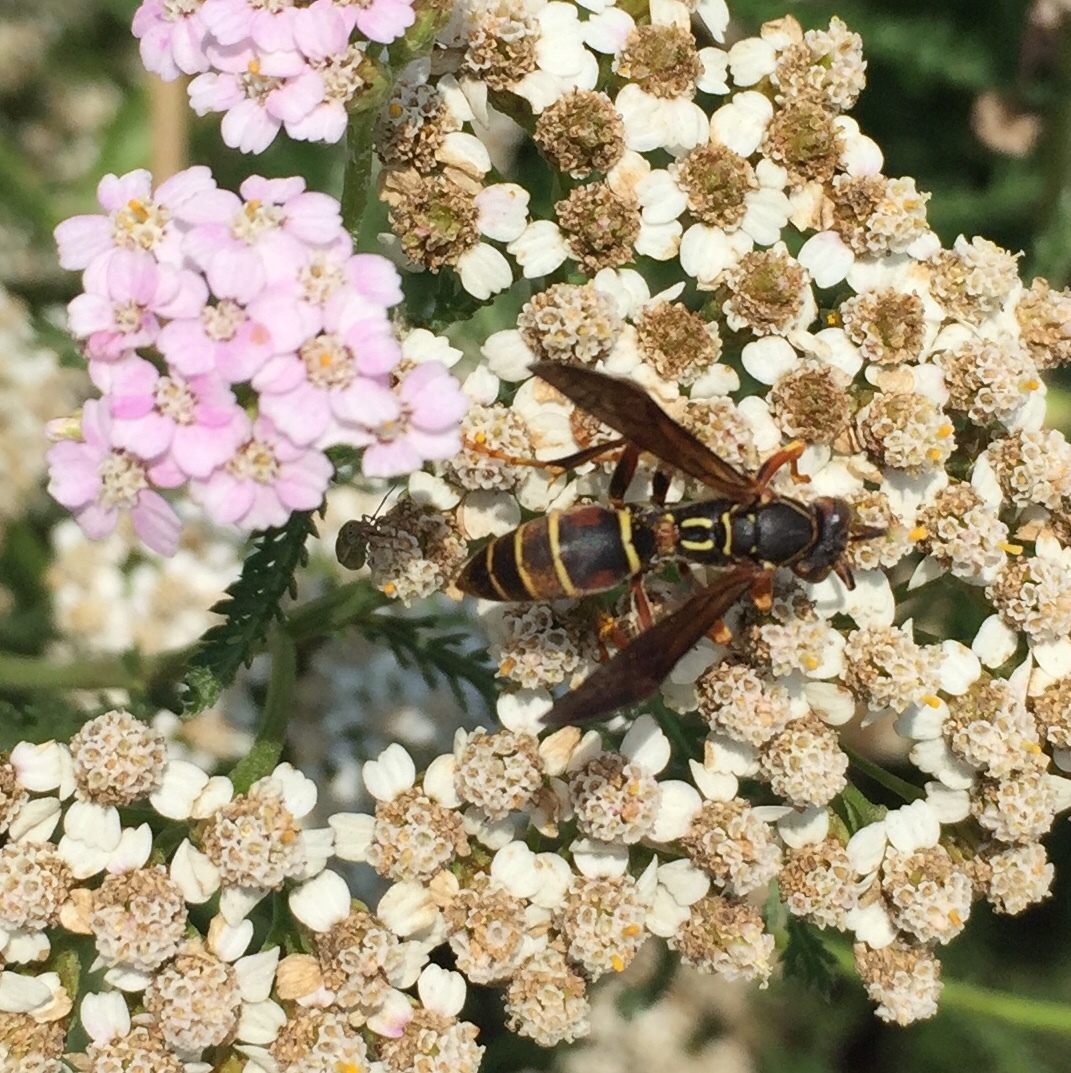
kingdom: Animalia
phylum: Arthropoda
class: Insecta
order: Hymenoptera
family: Eumenidae
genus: Polistes
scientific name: Polistes fuscatus
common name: Dark paper wasp
